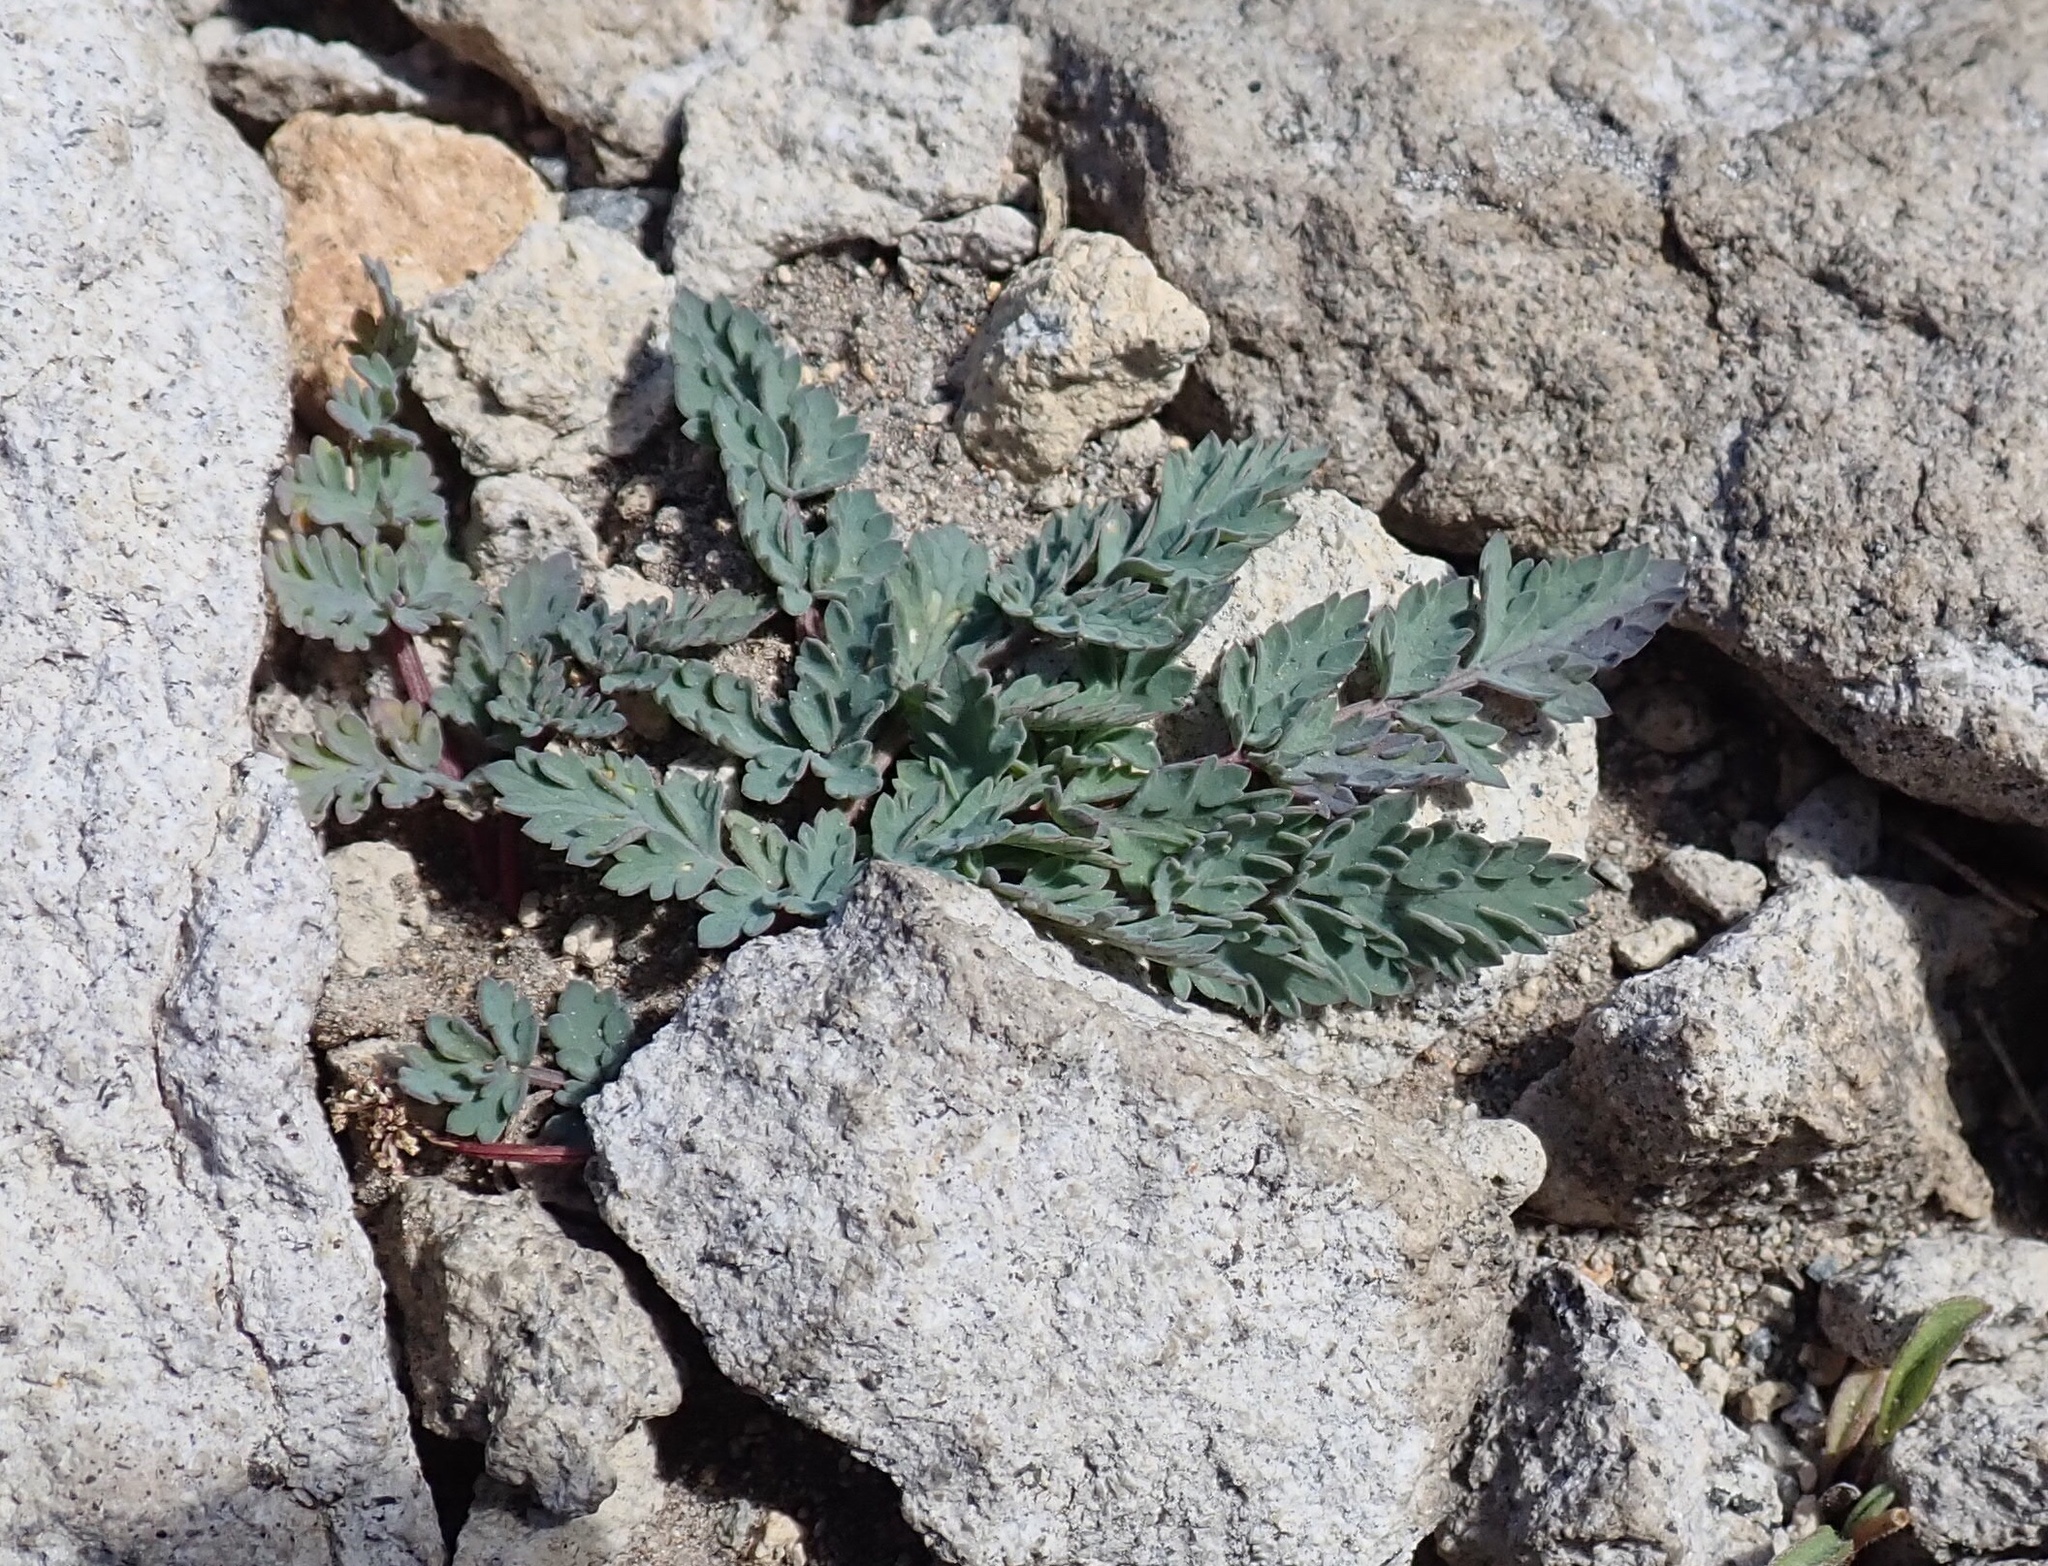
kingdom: Plantae
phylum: Tracheophyta
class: Magnoliopsida
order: Apiales
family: Apiaceae
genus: Lomatium
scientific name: Lomatium martindalei
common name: Cascade desert-parsley
